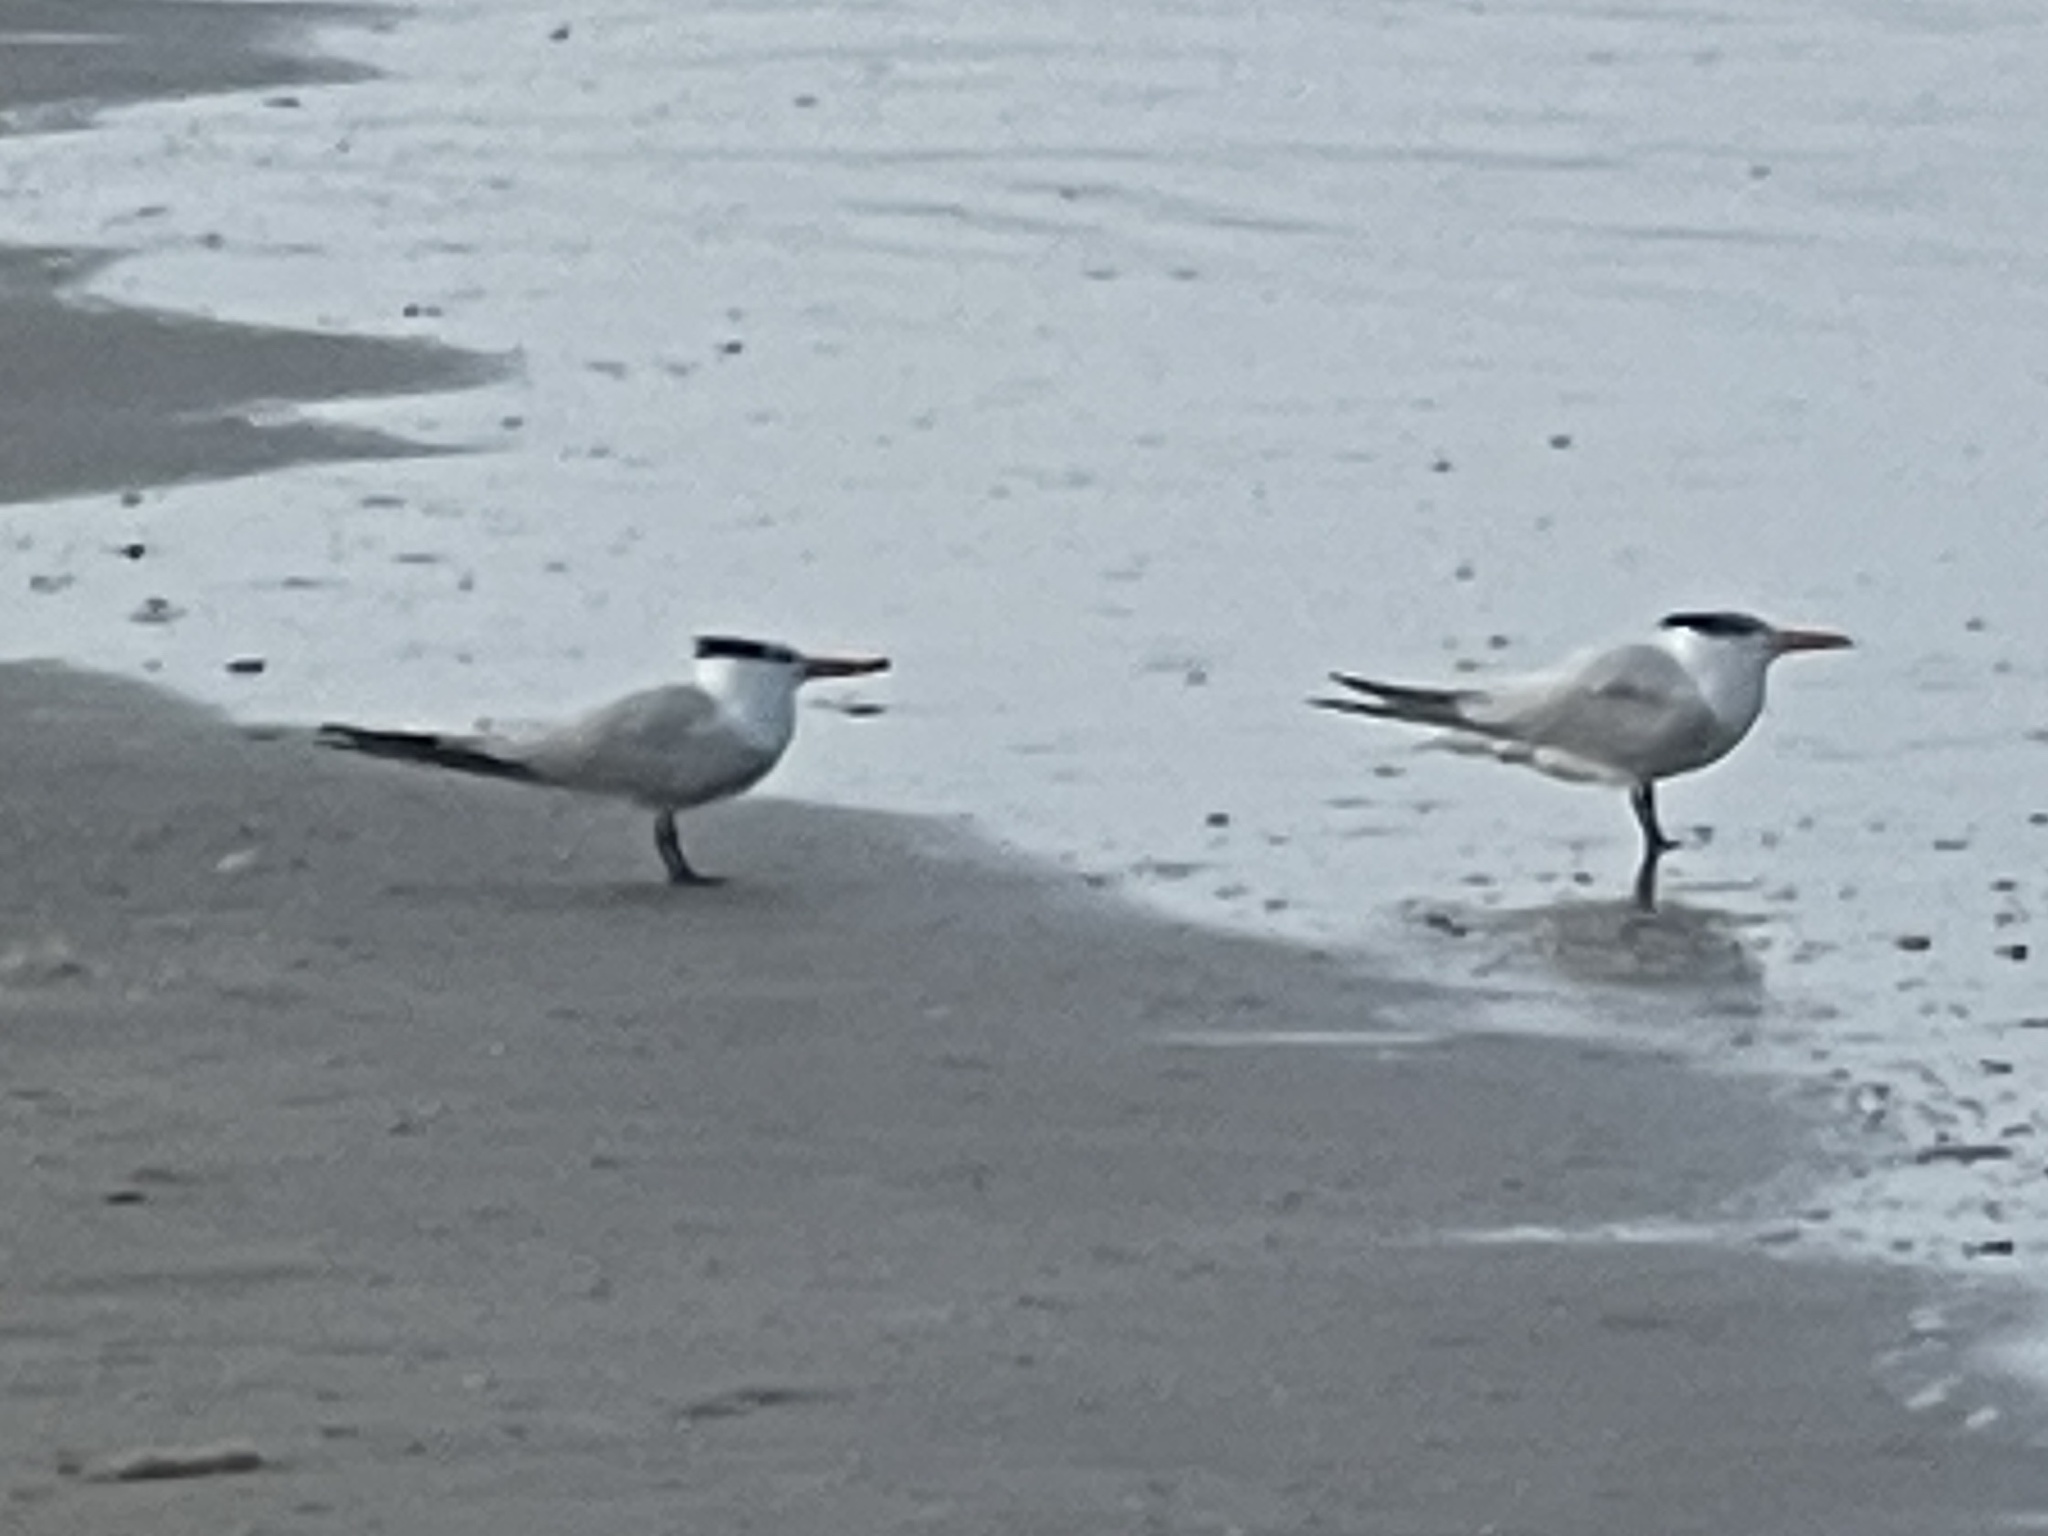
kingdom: Animalia
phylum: Chordata
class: Aves
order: Charadriiformes
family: Laridae
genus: Thalasseus
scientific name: Thalasseus maximus
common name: Royal tern
